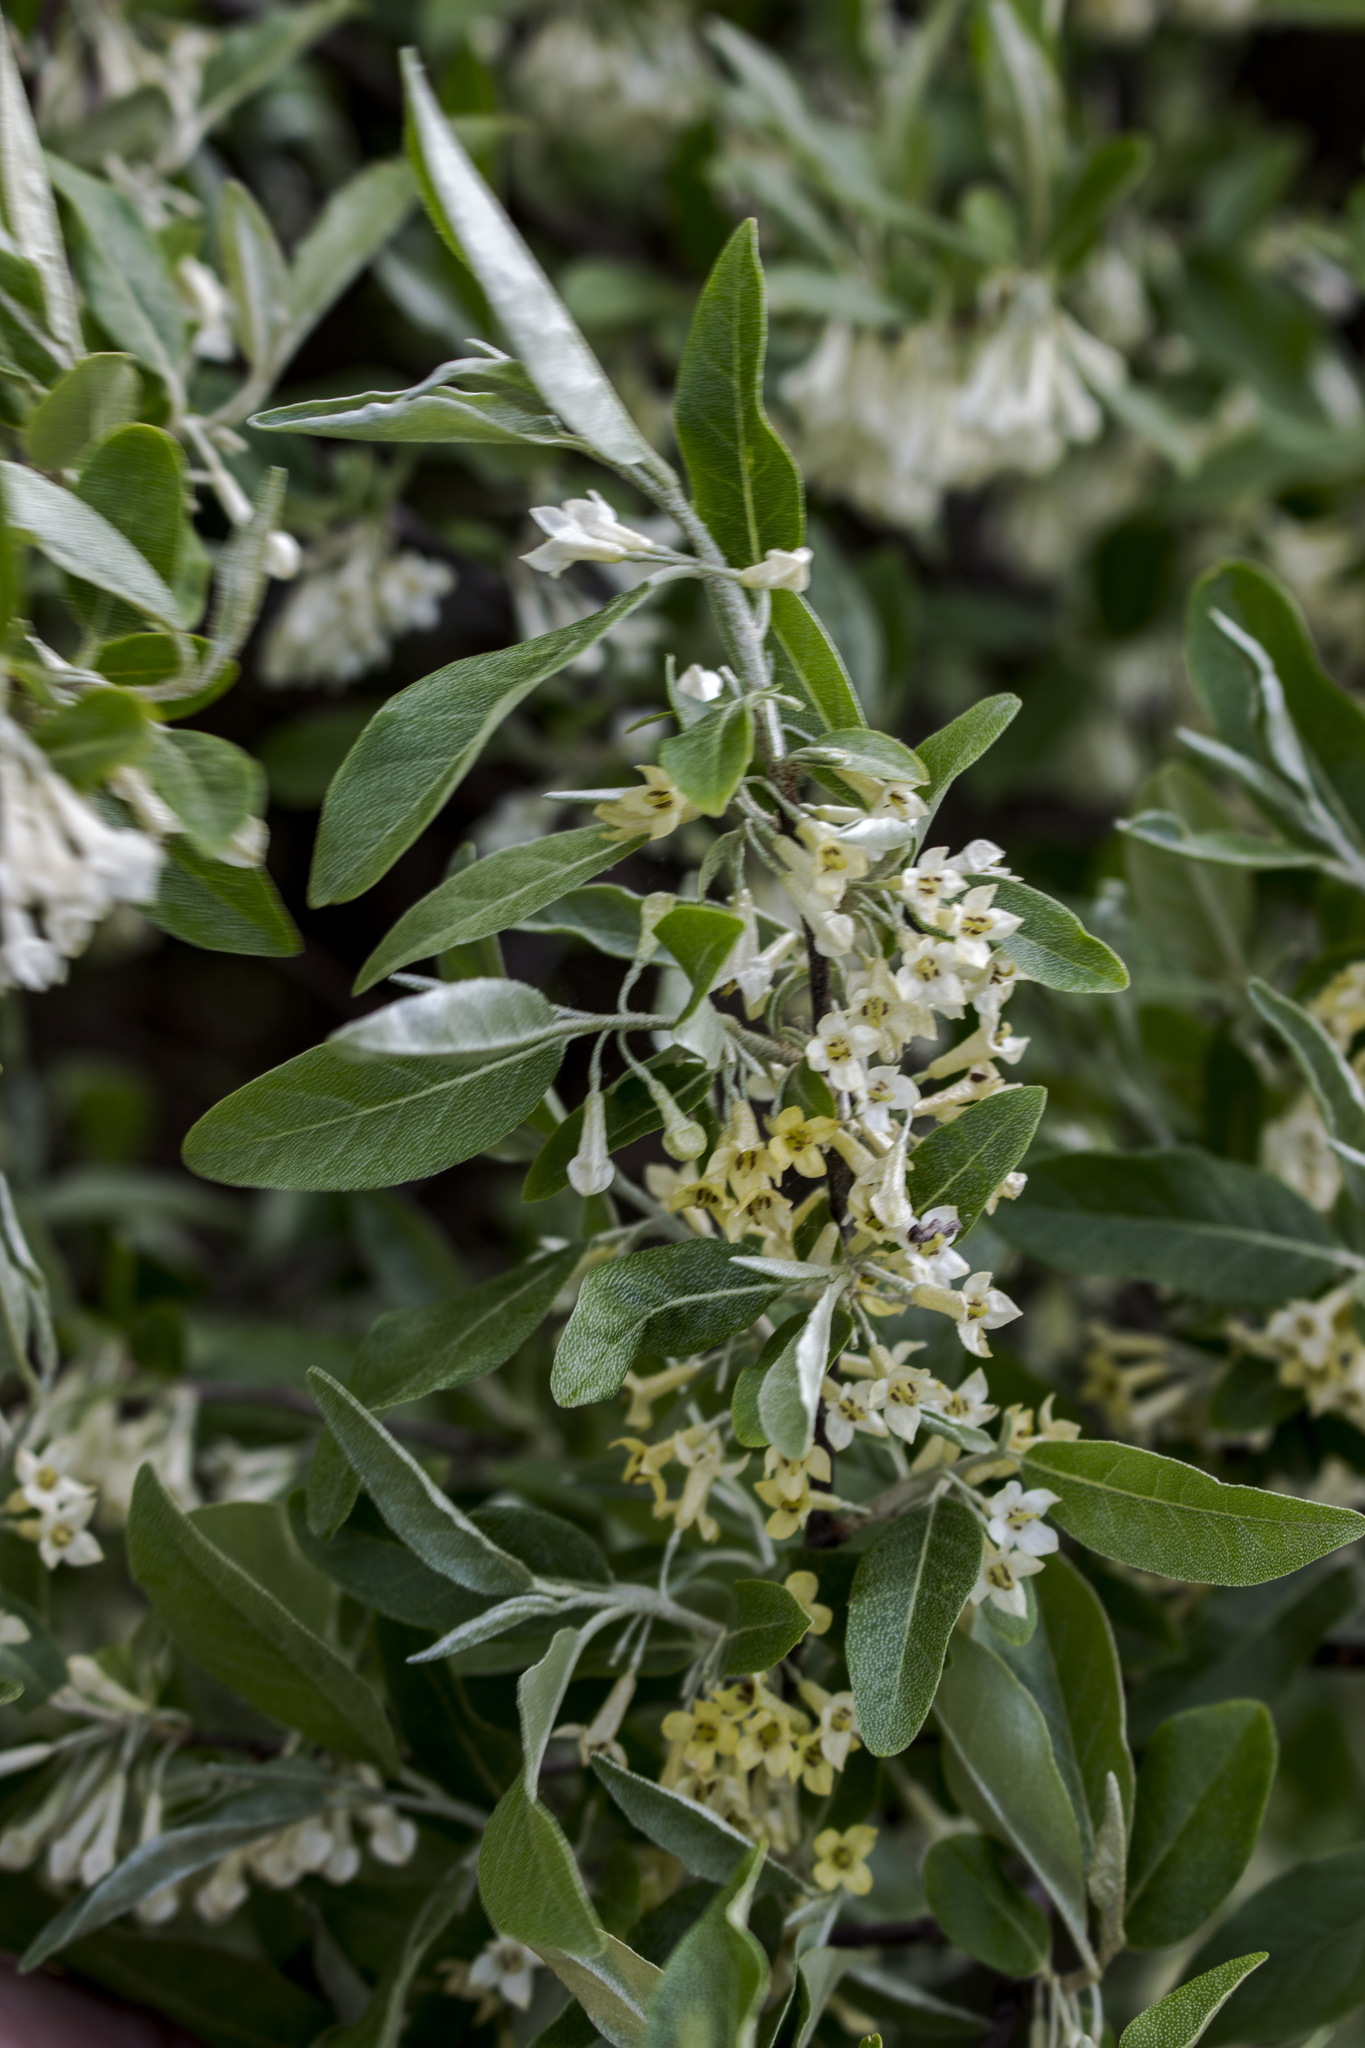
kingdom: Plantae
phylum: Tracheophyta
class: Magnoliopsida
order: Rosales
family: Elaeagnaceae
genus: Elaeagnus
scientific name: Elaeagnus umbellata
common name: Autumn olive
